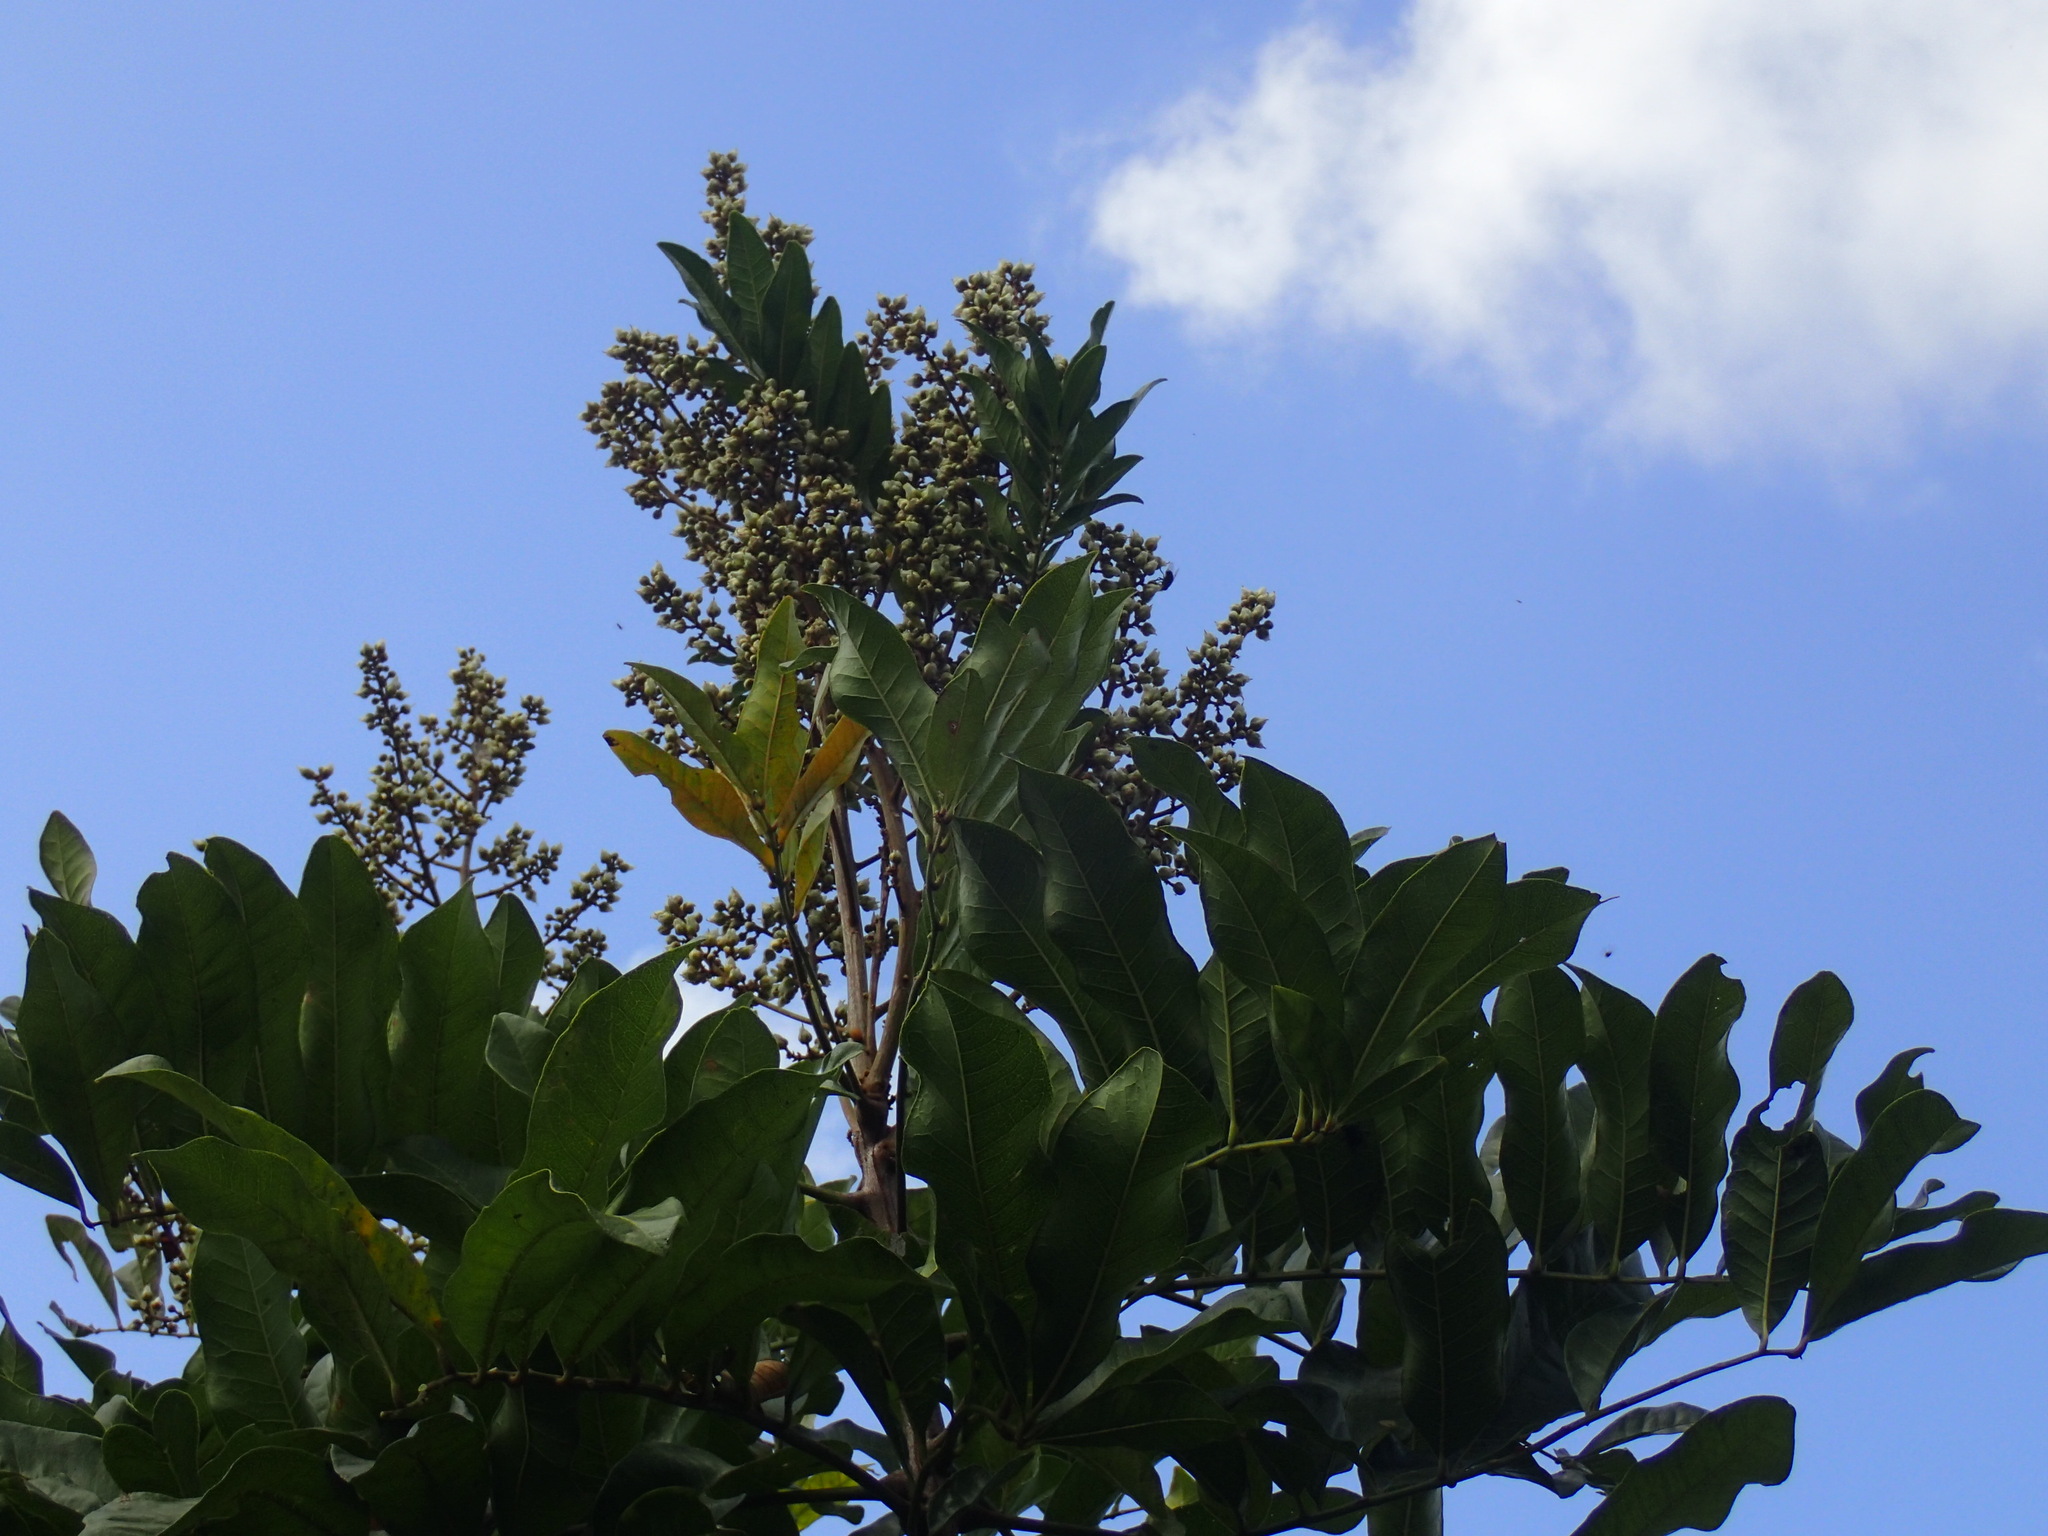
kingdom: Plantae
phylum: Tracheophyta
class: Magnoliopsida
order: Sapindales
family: Sapindaceae
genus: Deinbollia
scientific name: Deinbollia oblongifolia
